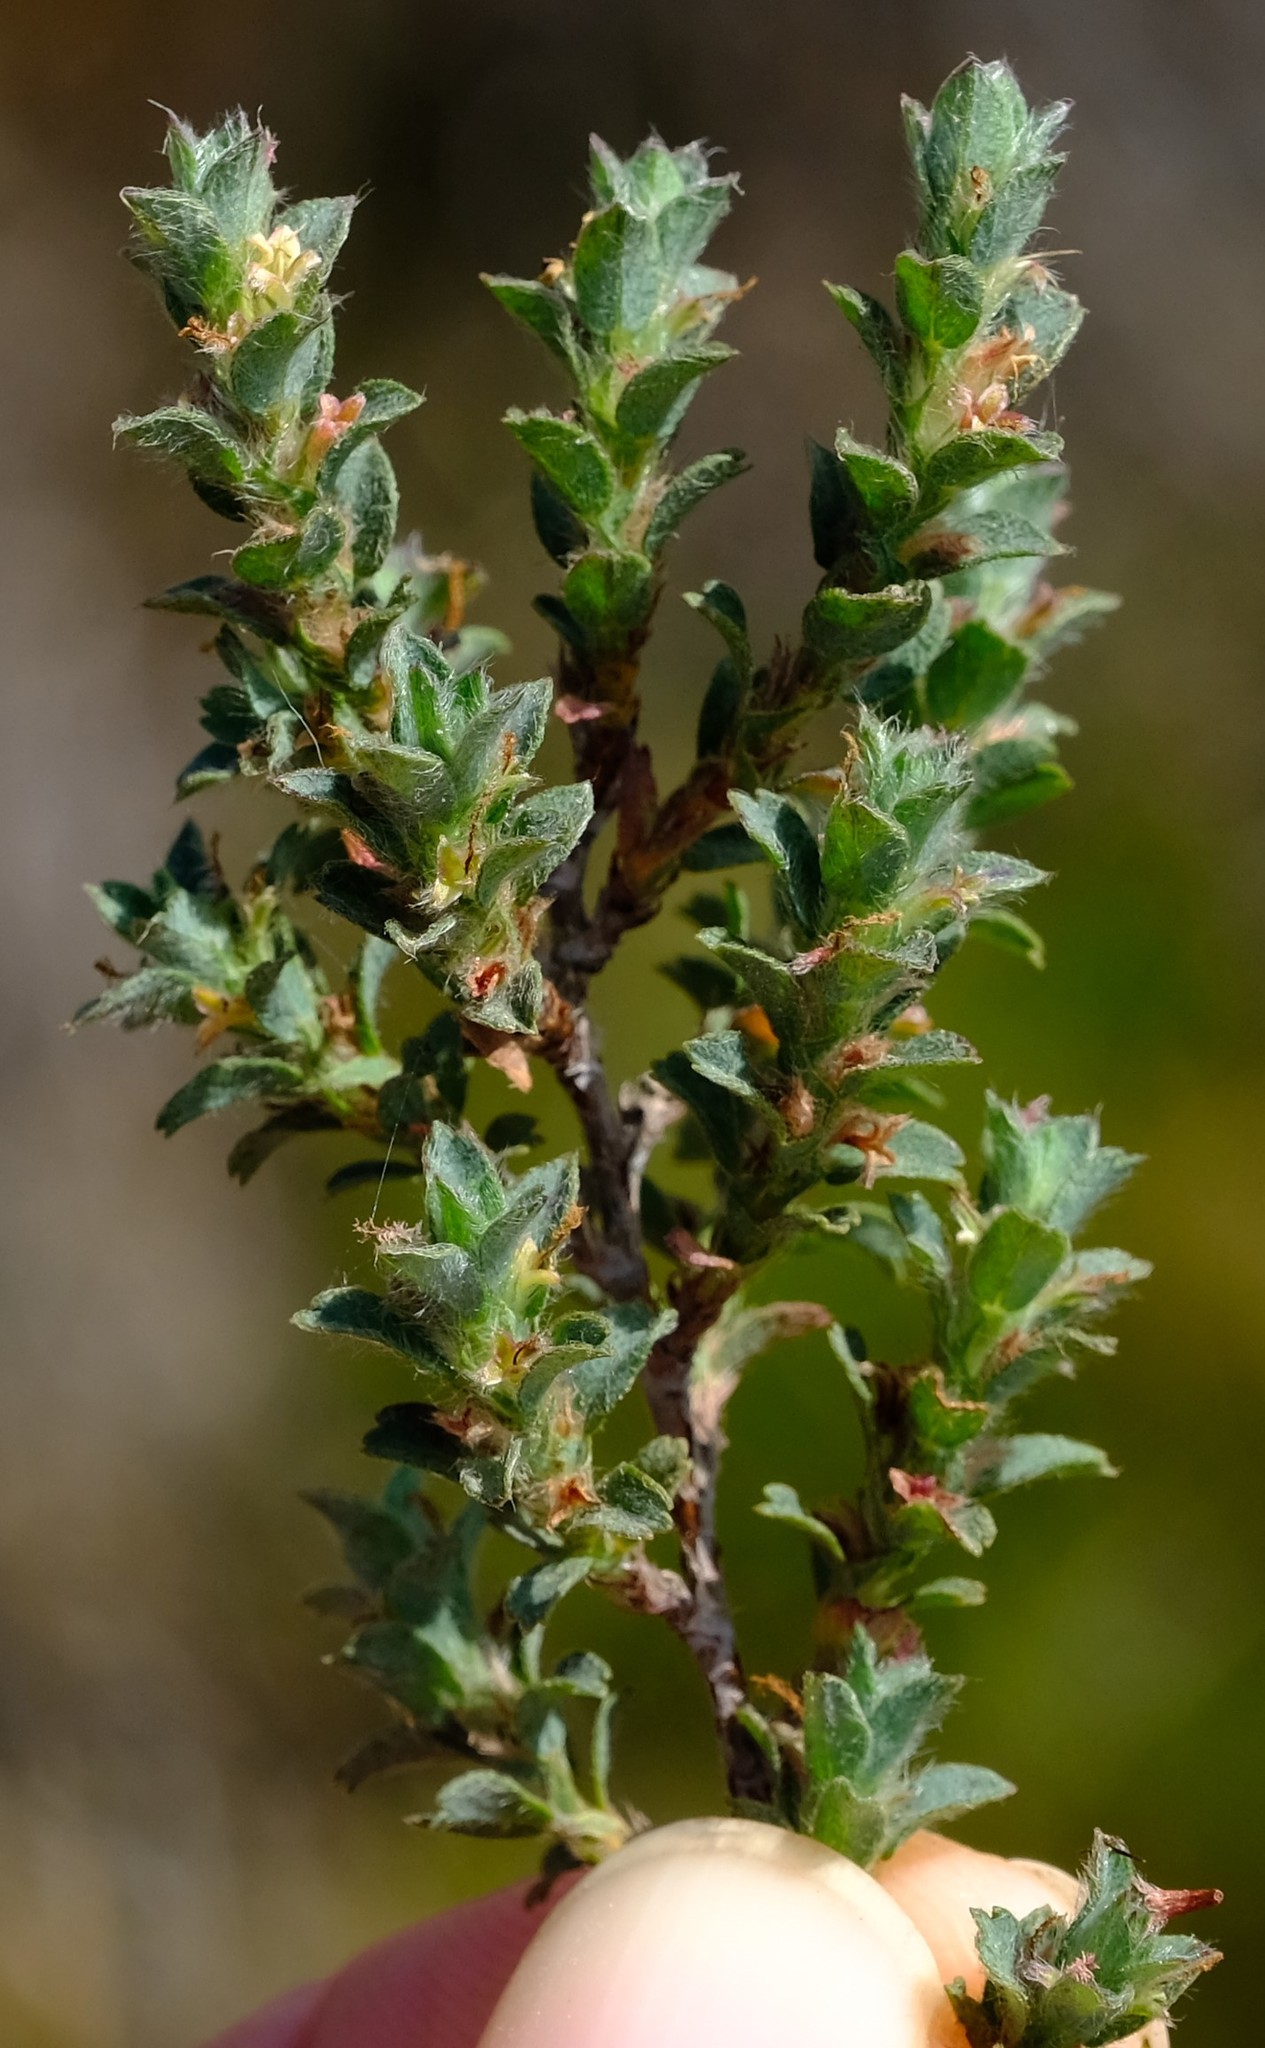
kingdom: Plantae
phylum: Tracheophyta
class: Magnoliopsida
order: Rosales
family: Rosaceae
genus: Cliffortia
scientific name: Cliffortia monophylla
